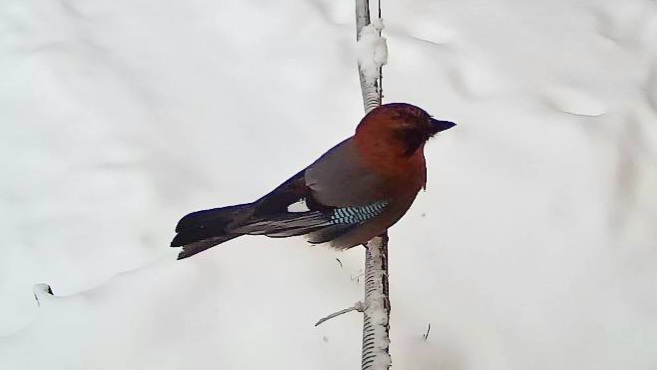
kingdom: Animalia
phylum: Chordata
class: Aves
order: Passeriformes
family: Corvidae
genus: Garrulus
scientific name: Garrulus glandarius
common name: Eurasian jay
